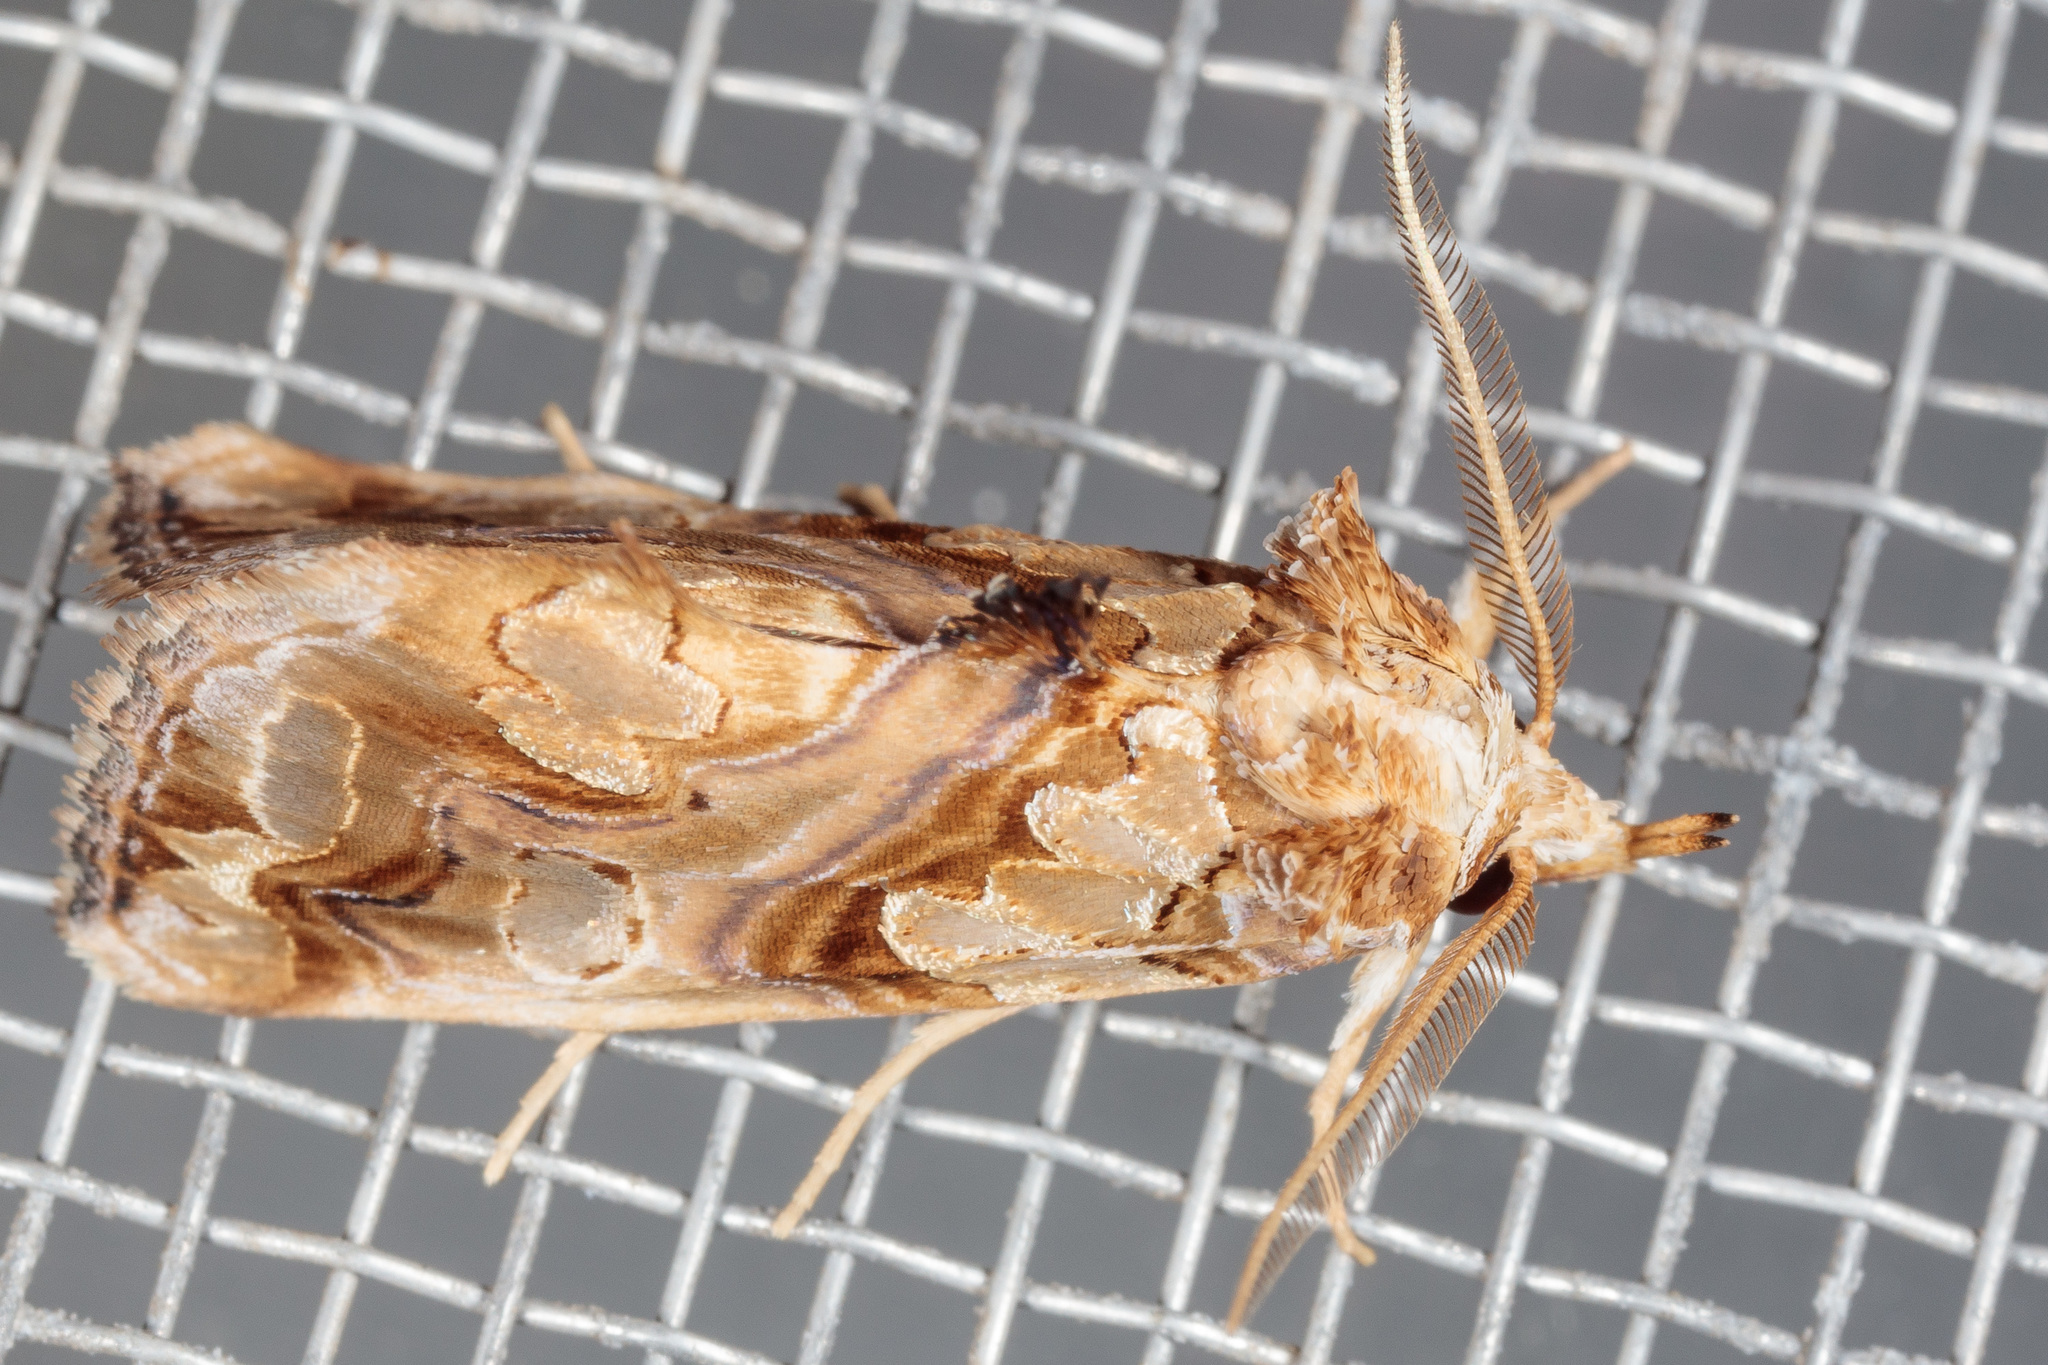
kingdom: Animalia
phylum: Arthropoda
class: Insecta
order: Lepidoptera
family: Erebidae
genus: Plusiodonta
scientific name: Plusiodonta compressipalpis
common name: Moonseed moth
